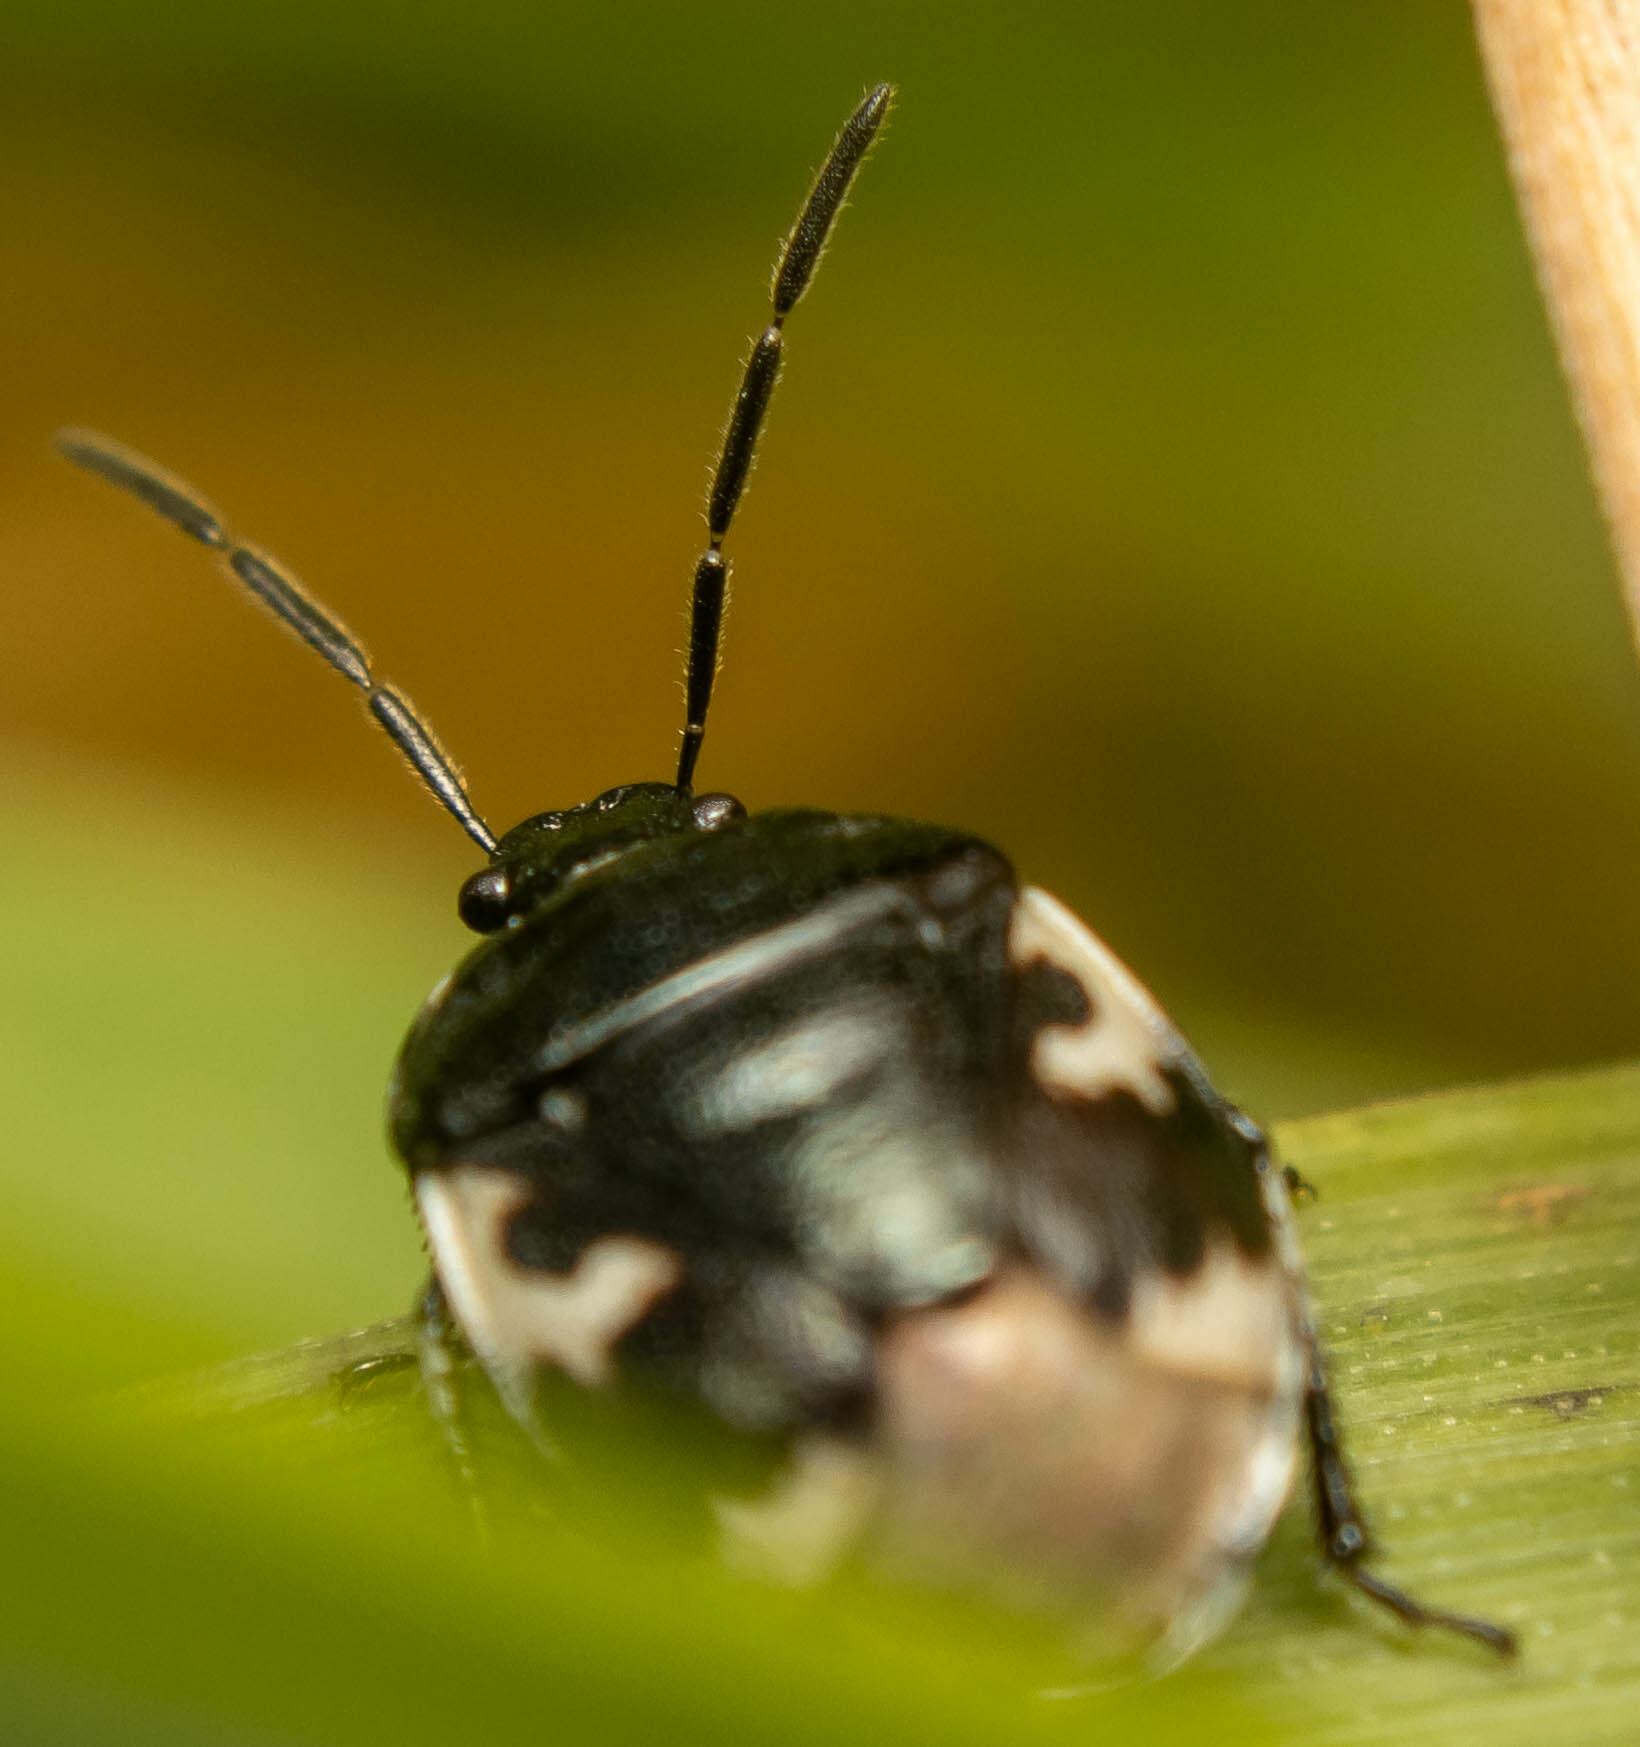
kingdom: Animalia
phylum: Arthropoda
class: Insecta
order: Hemiptera
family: Cydnidae
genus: Tritomegas
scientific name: Tritomegas bicolor
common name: Pied shieldbug
